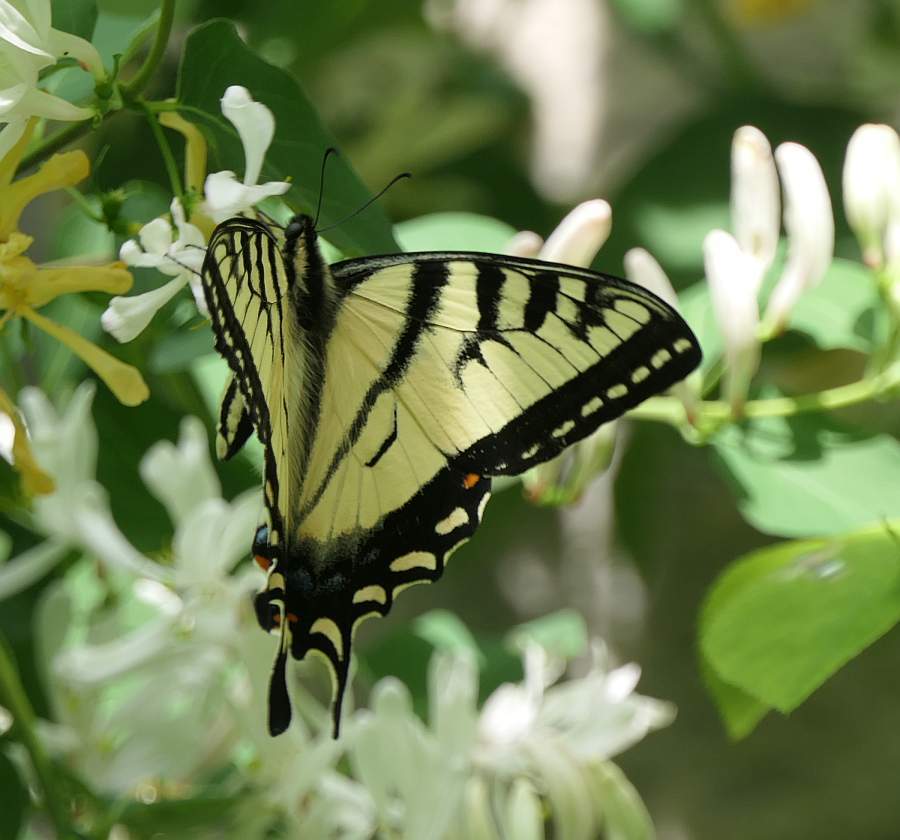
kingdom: Animalia
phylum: Arthropoda
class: Insecta
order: Lepidoptera
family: Papilionidae
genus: Papilio
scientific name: Papilio canadensis
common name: Canadian tiger swallowtail
